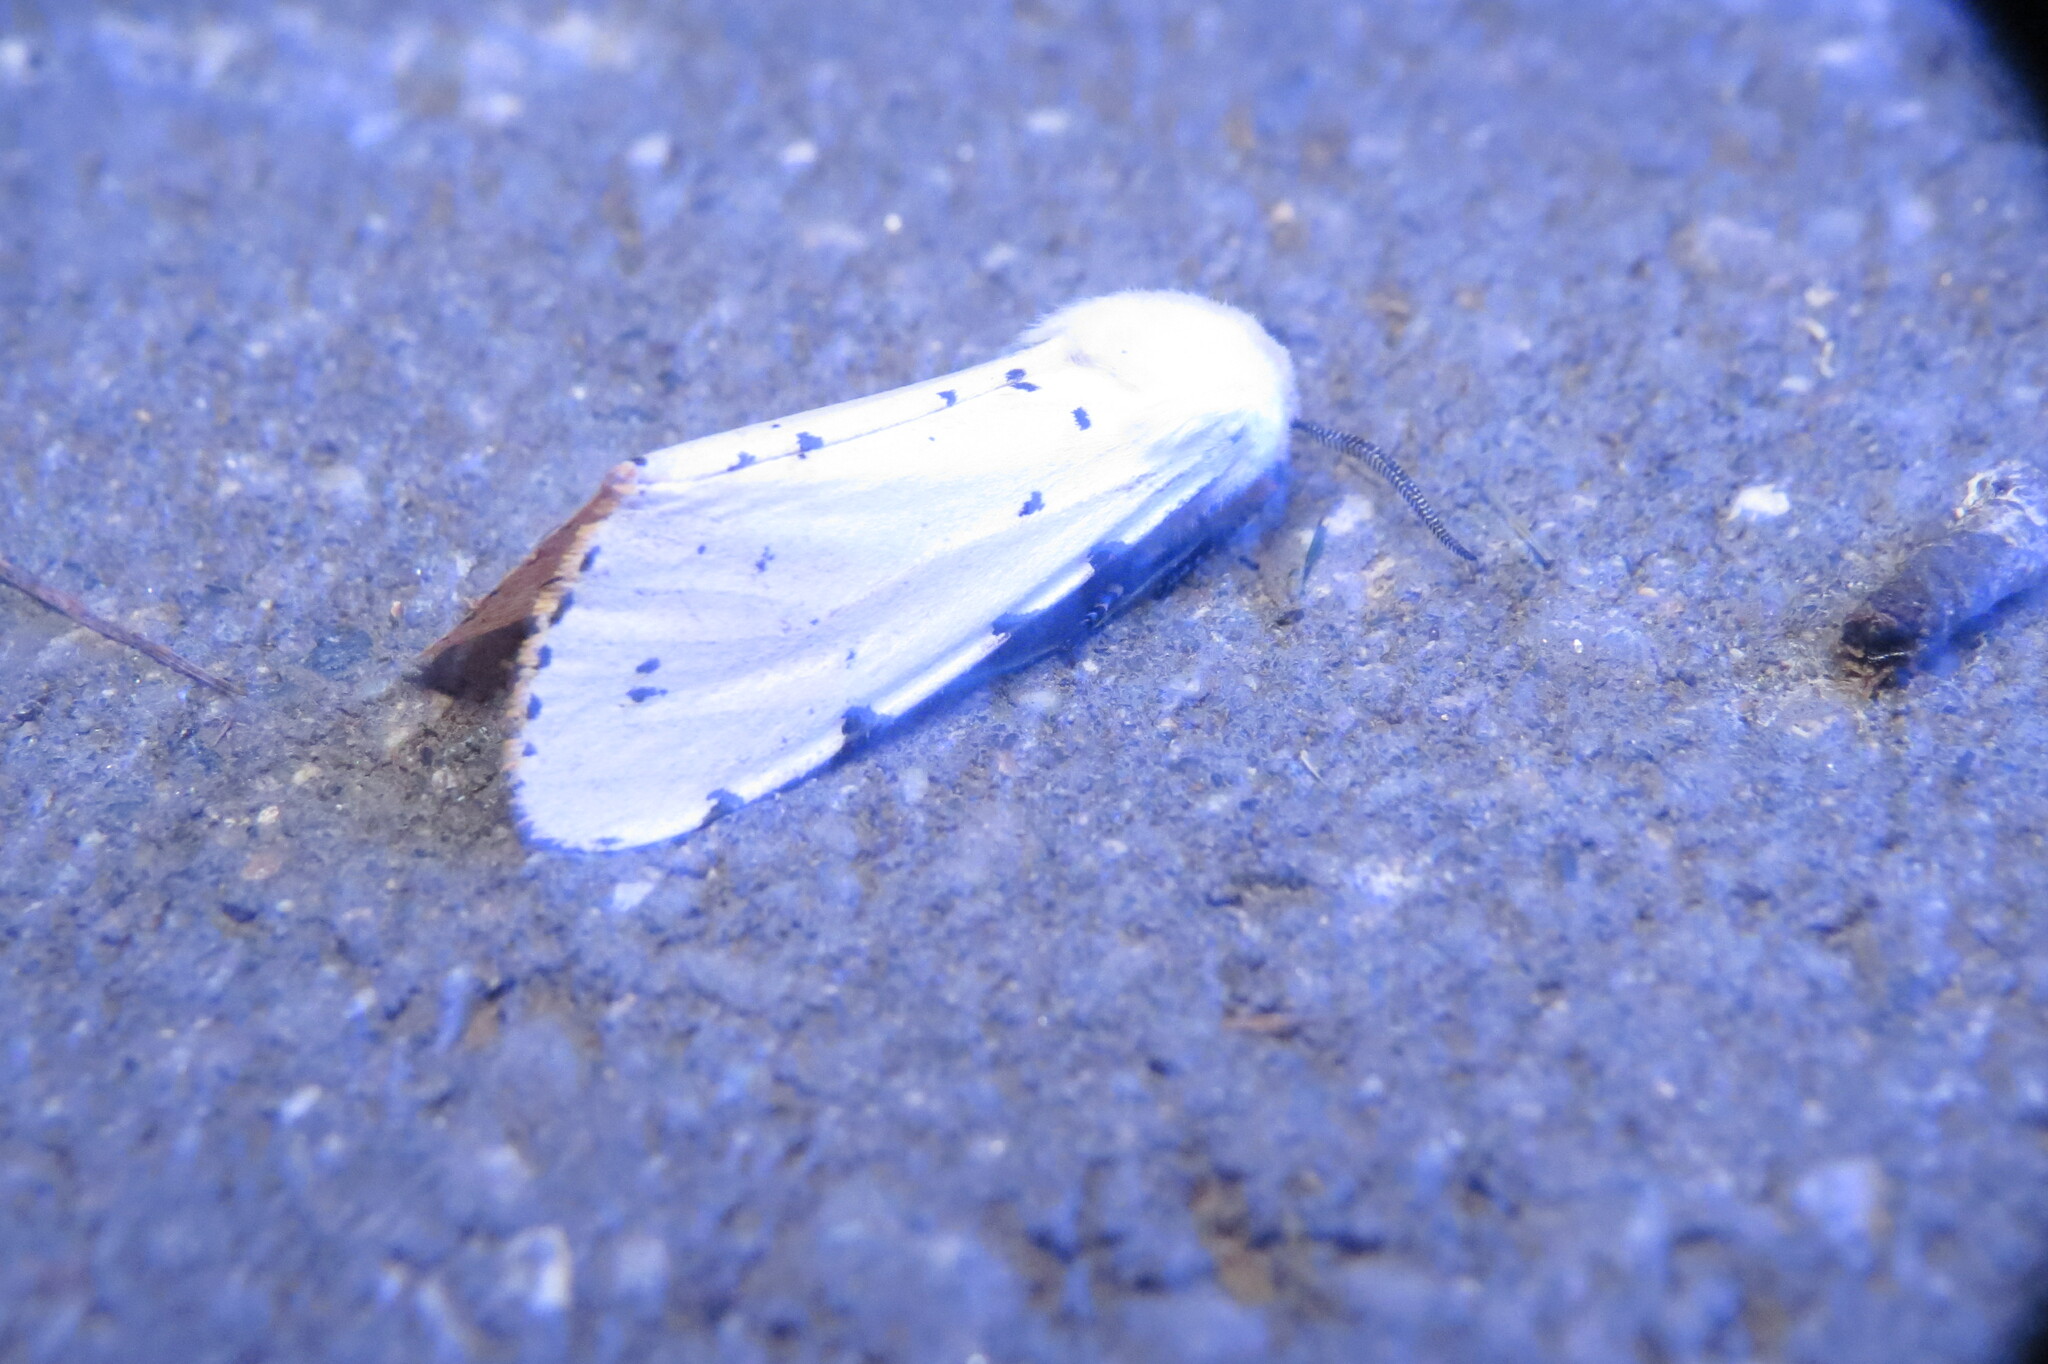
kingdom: Animalia
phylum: Arthropoda
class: Insecta
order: Lepidoptera
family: Erebidae
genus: Estigmene
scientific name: Estigmene acrea
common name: Salt marsh moth
